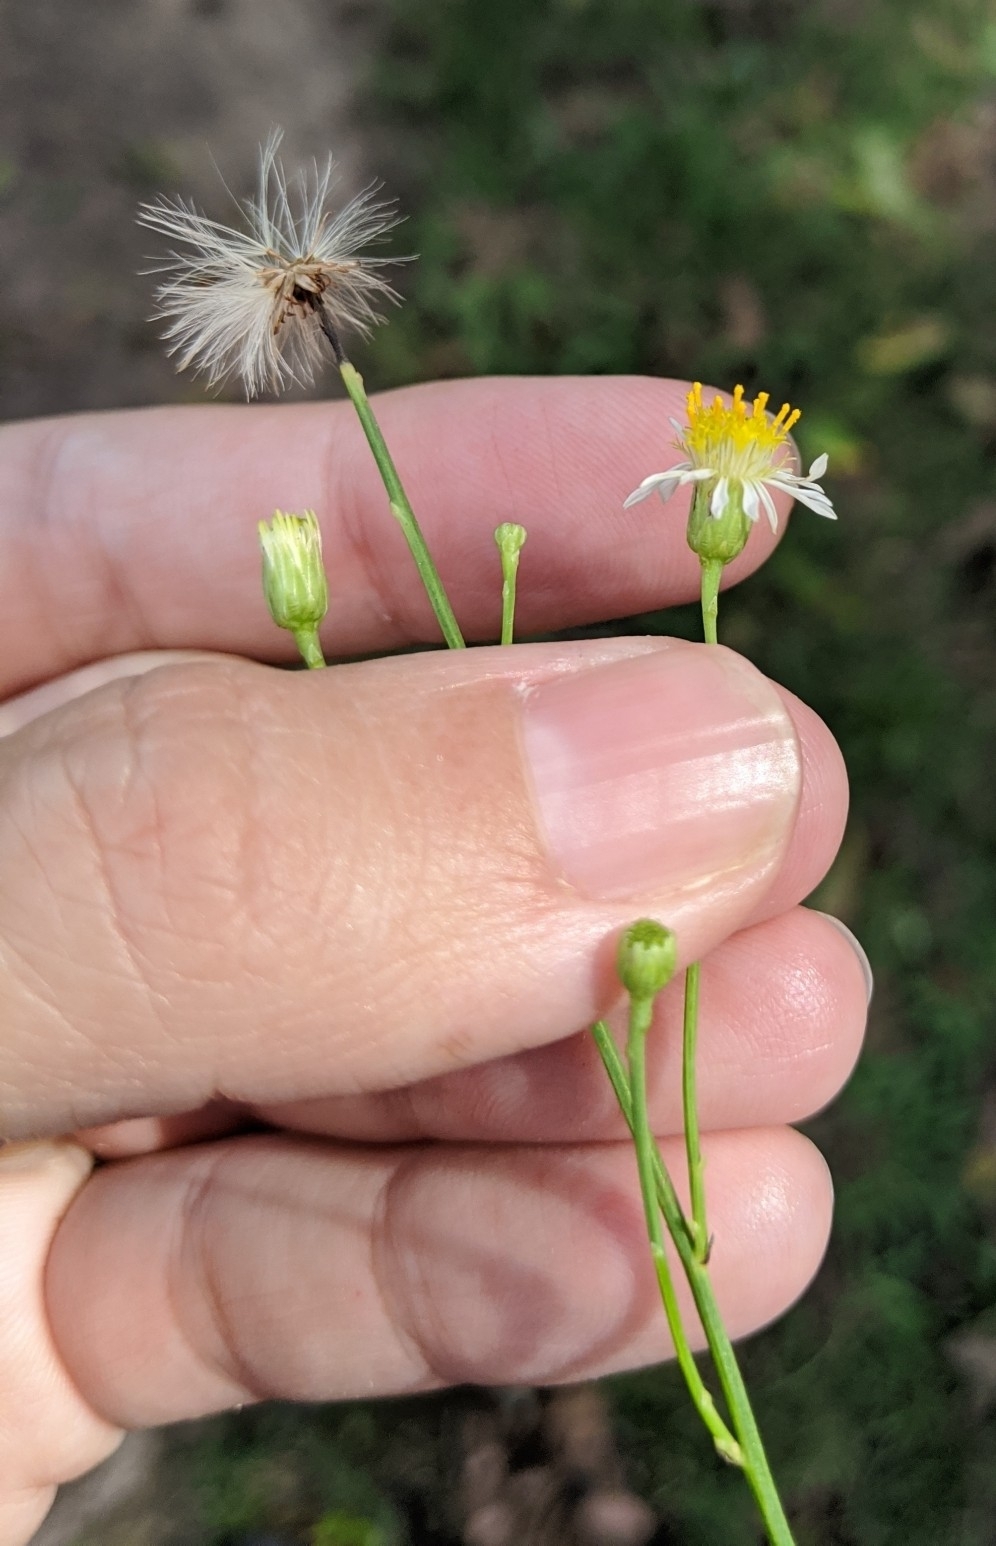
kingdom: Plantae
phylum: Tracheophyta
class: Magnoliopsida
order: Asterales
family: Asteraceae
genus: Chloracantha
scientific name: Chloracantha spinosa
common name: Mexican devilweed
